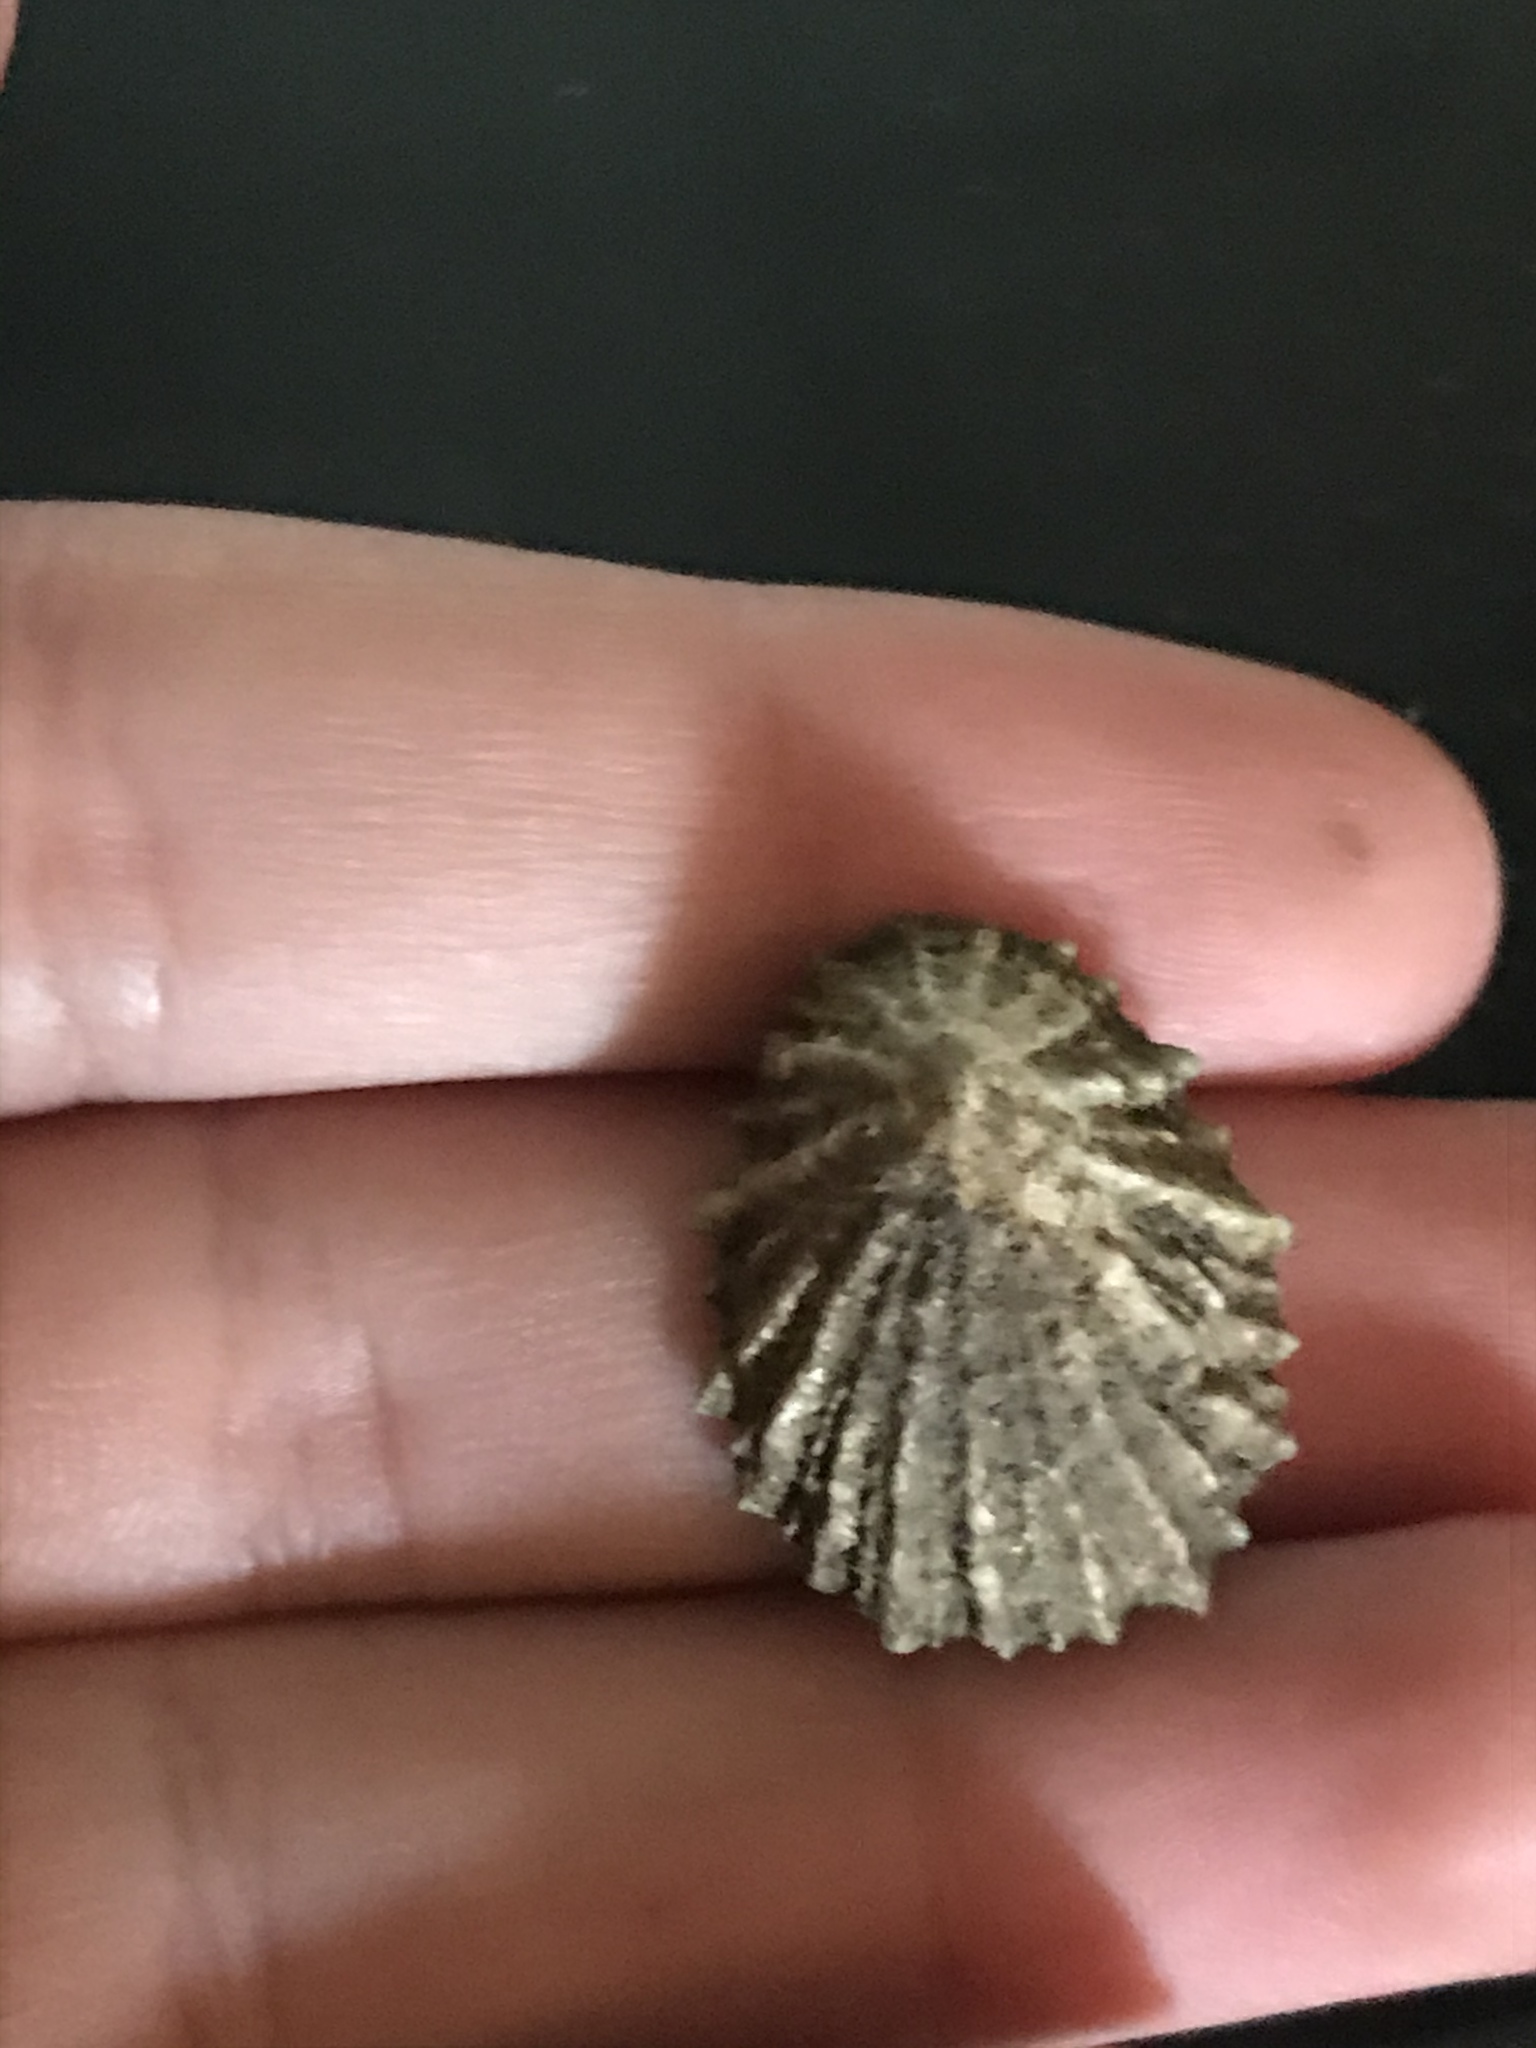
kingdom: Animalia
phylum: Mollusca
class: Gastropoda
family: Lottiidae
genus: Lottia
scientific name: Lottia scabra
